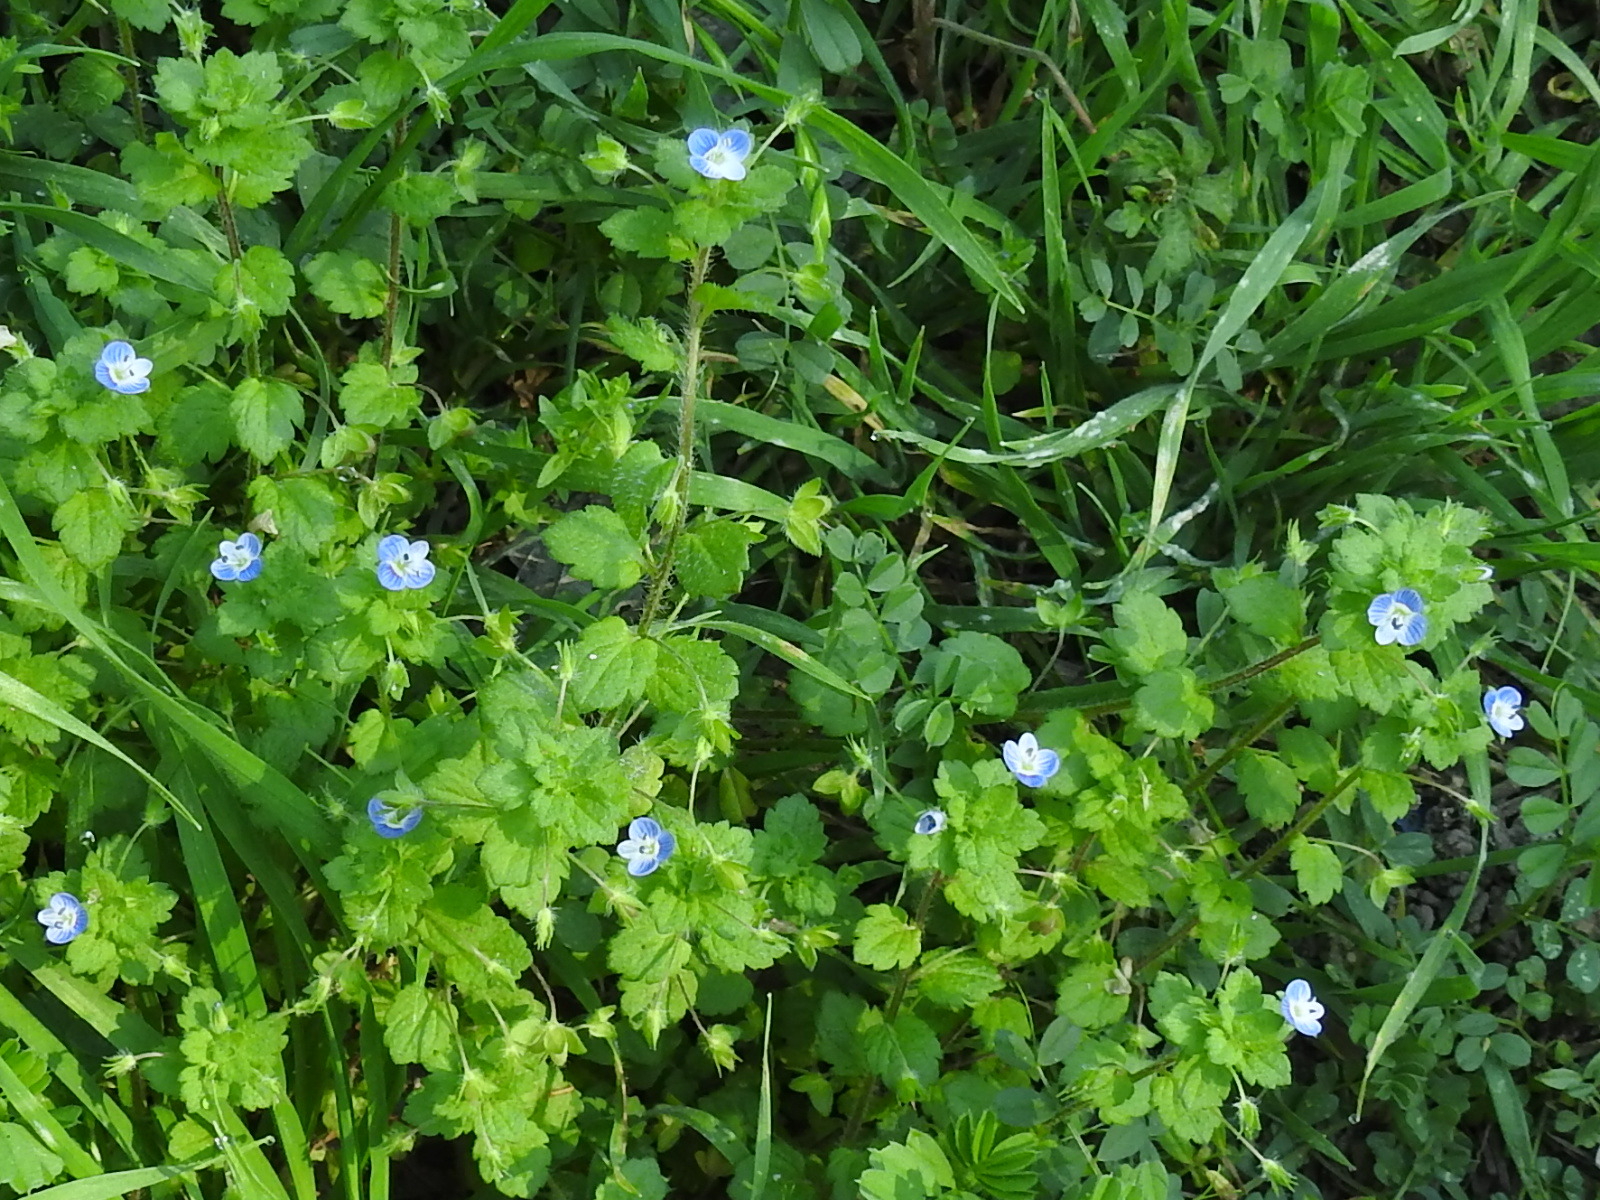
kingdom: Plantae
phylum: Tracheophyta
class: Magnoliopsida
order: Lamiales
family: Plantaginaceae
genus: Veronica
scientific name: Veronica persica
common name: Common field-speedwell
